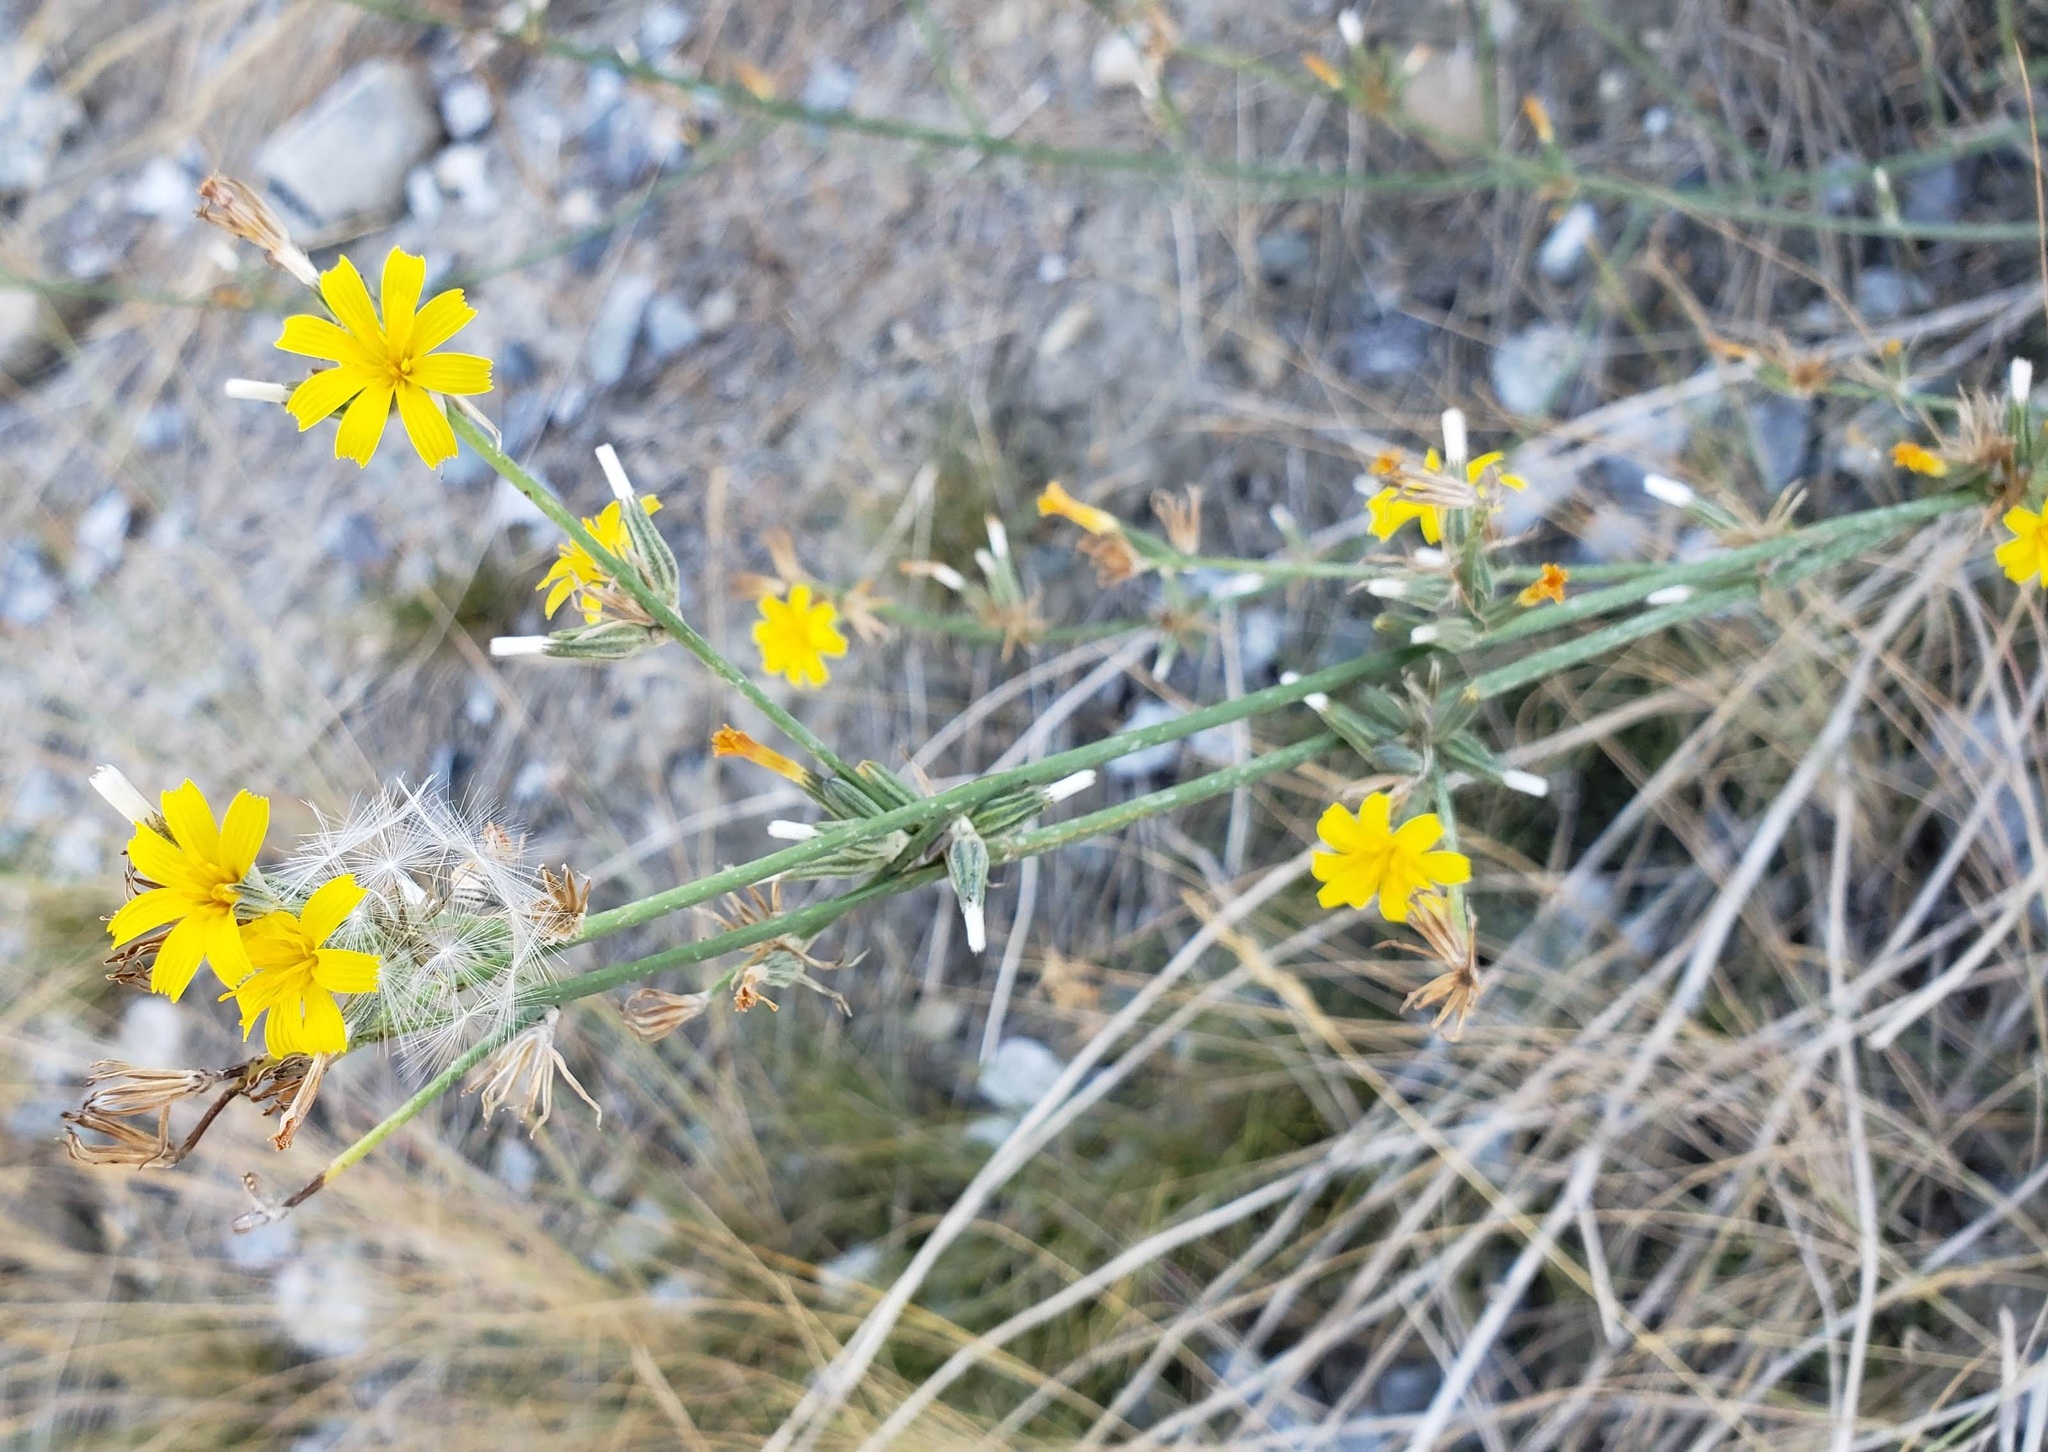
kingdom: Plantae
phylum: Tracheophyta
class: Magnoliopsida
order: Asterales
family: Asteraceae
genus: Chondrilla
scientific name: Chondrilla juncea
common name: Skeleton weed
